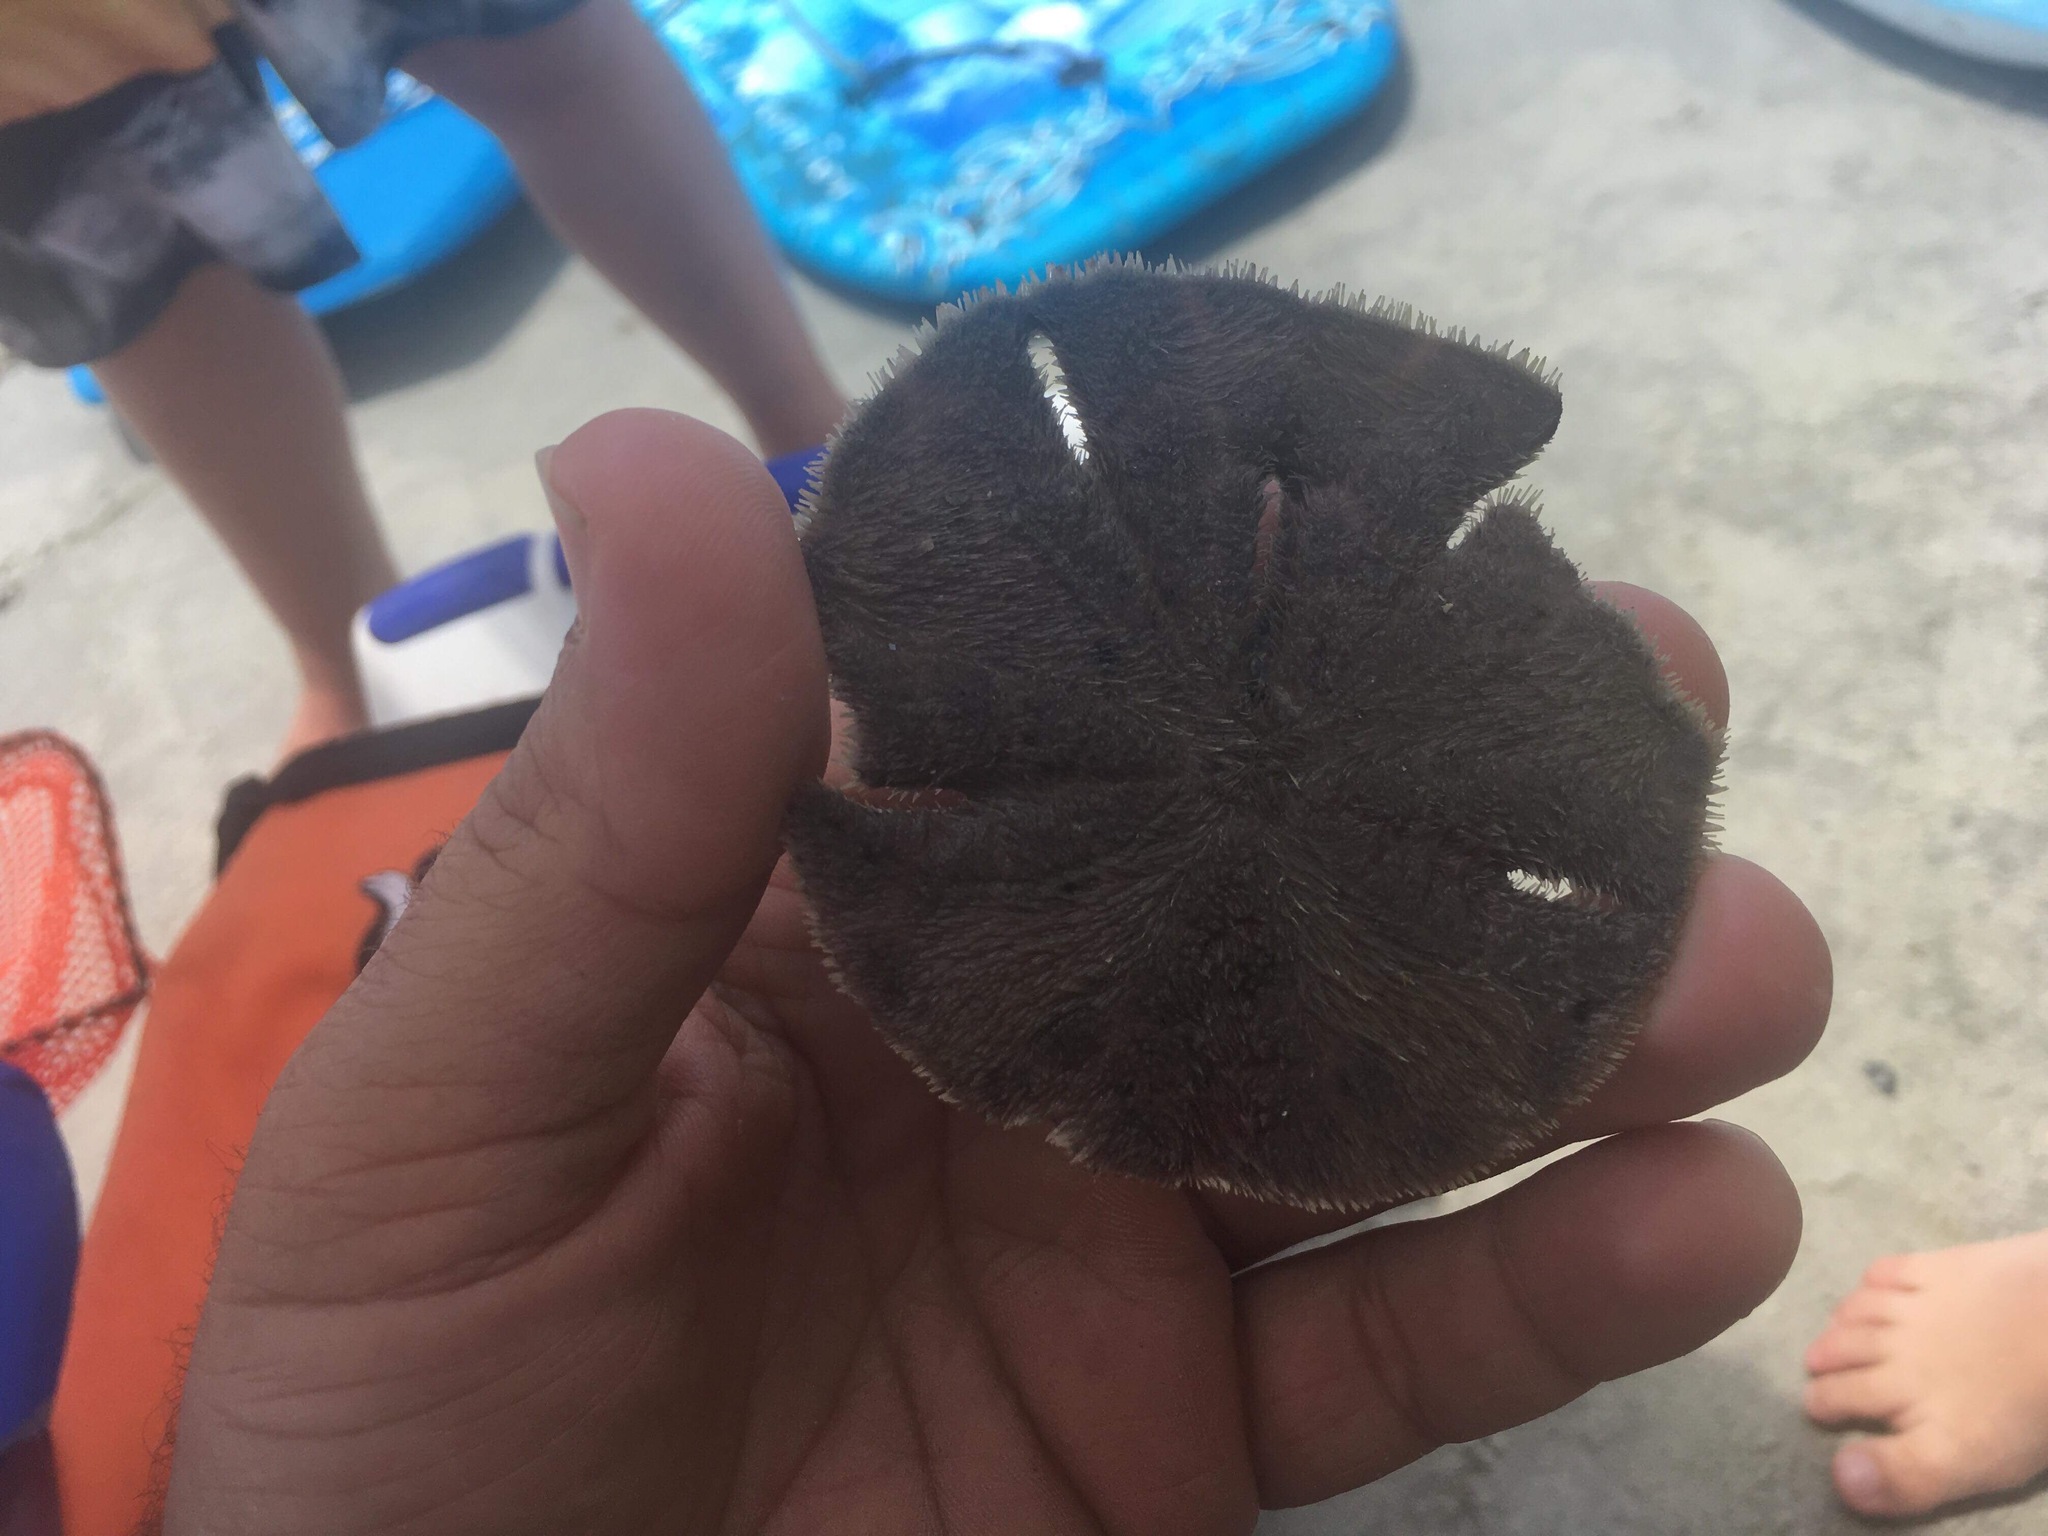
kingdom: Animalia
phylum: Echinodermata
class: Echinoidea
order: Echinolampadacea
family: Mellitidae
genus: Mellita
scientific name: Mellita isometra
